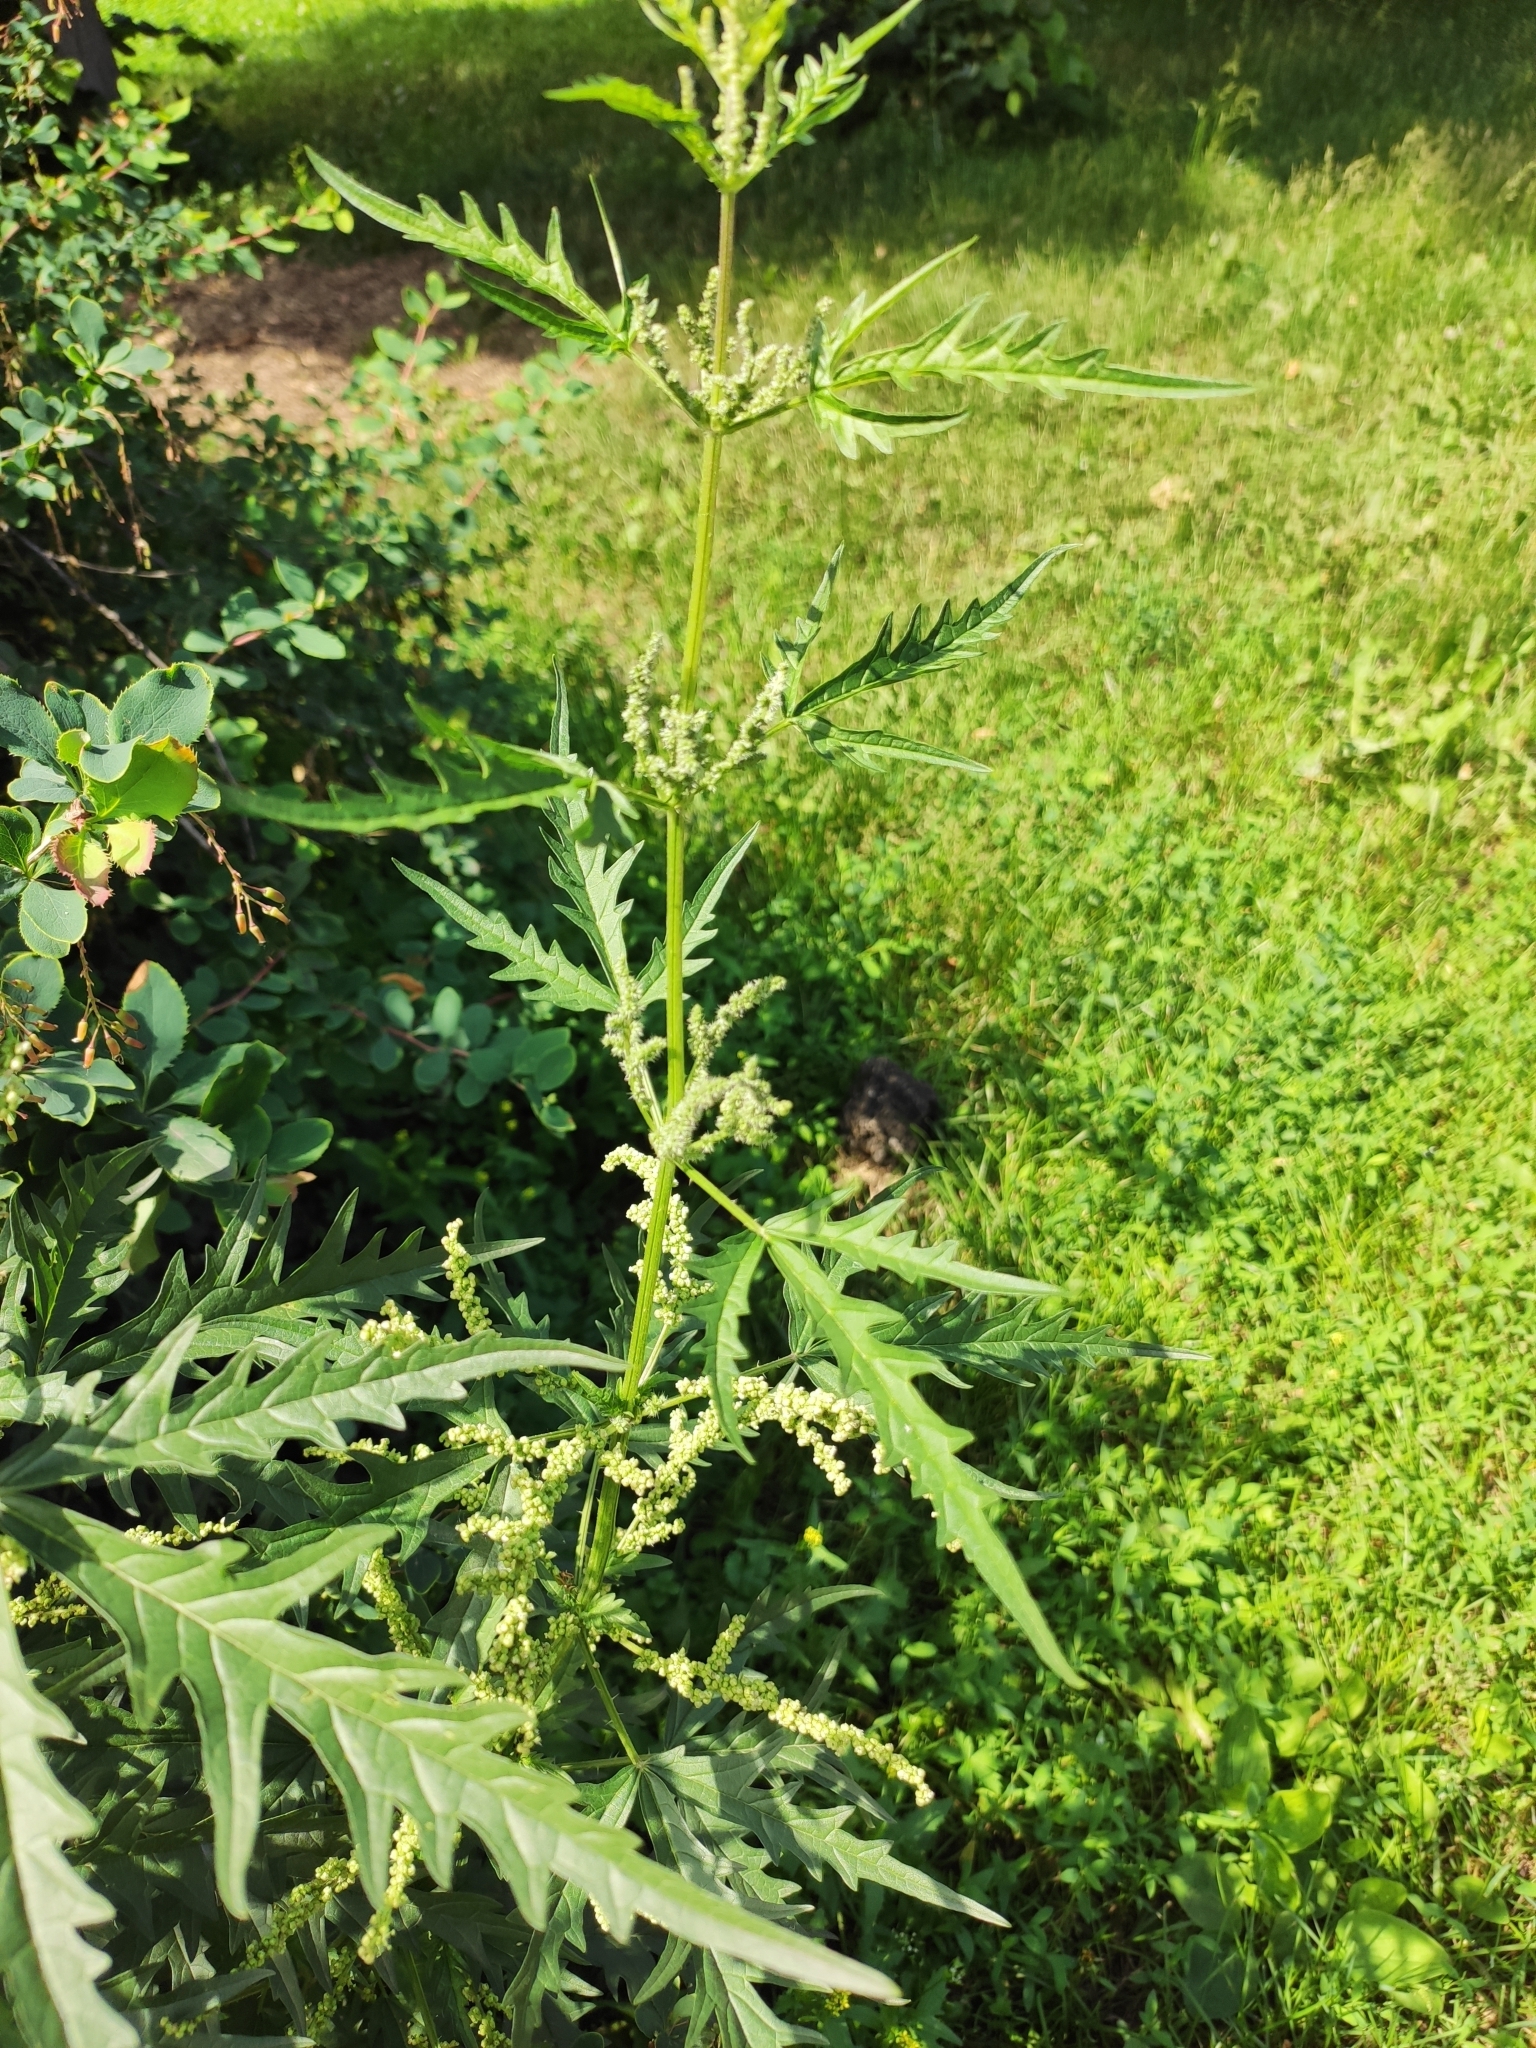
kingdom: Plantae
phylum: Tracheophyta
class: Magnoliopsida
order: Rosales
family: Urticaceae
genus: Urtica
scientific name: Urtica cannabina
